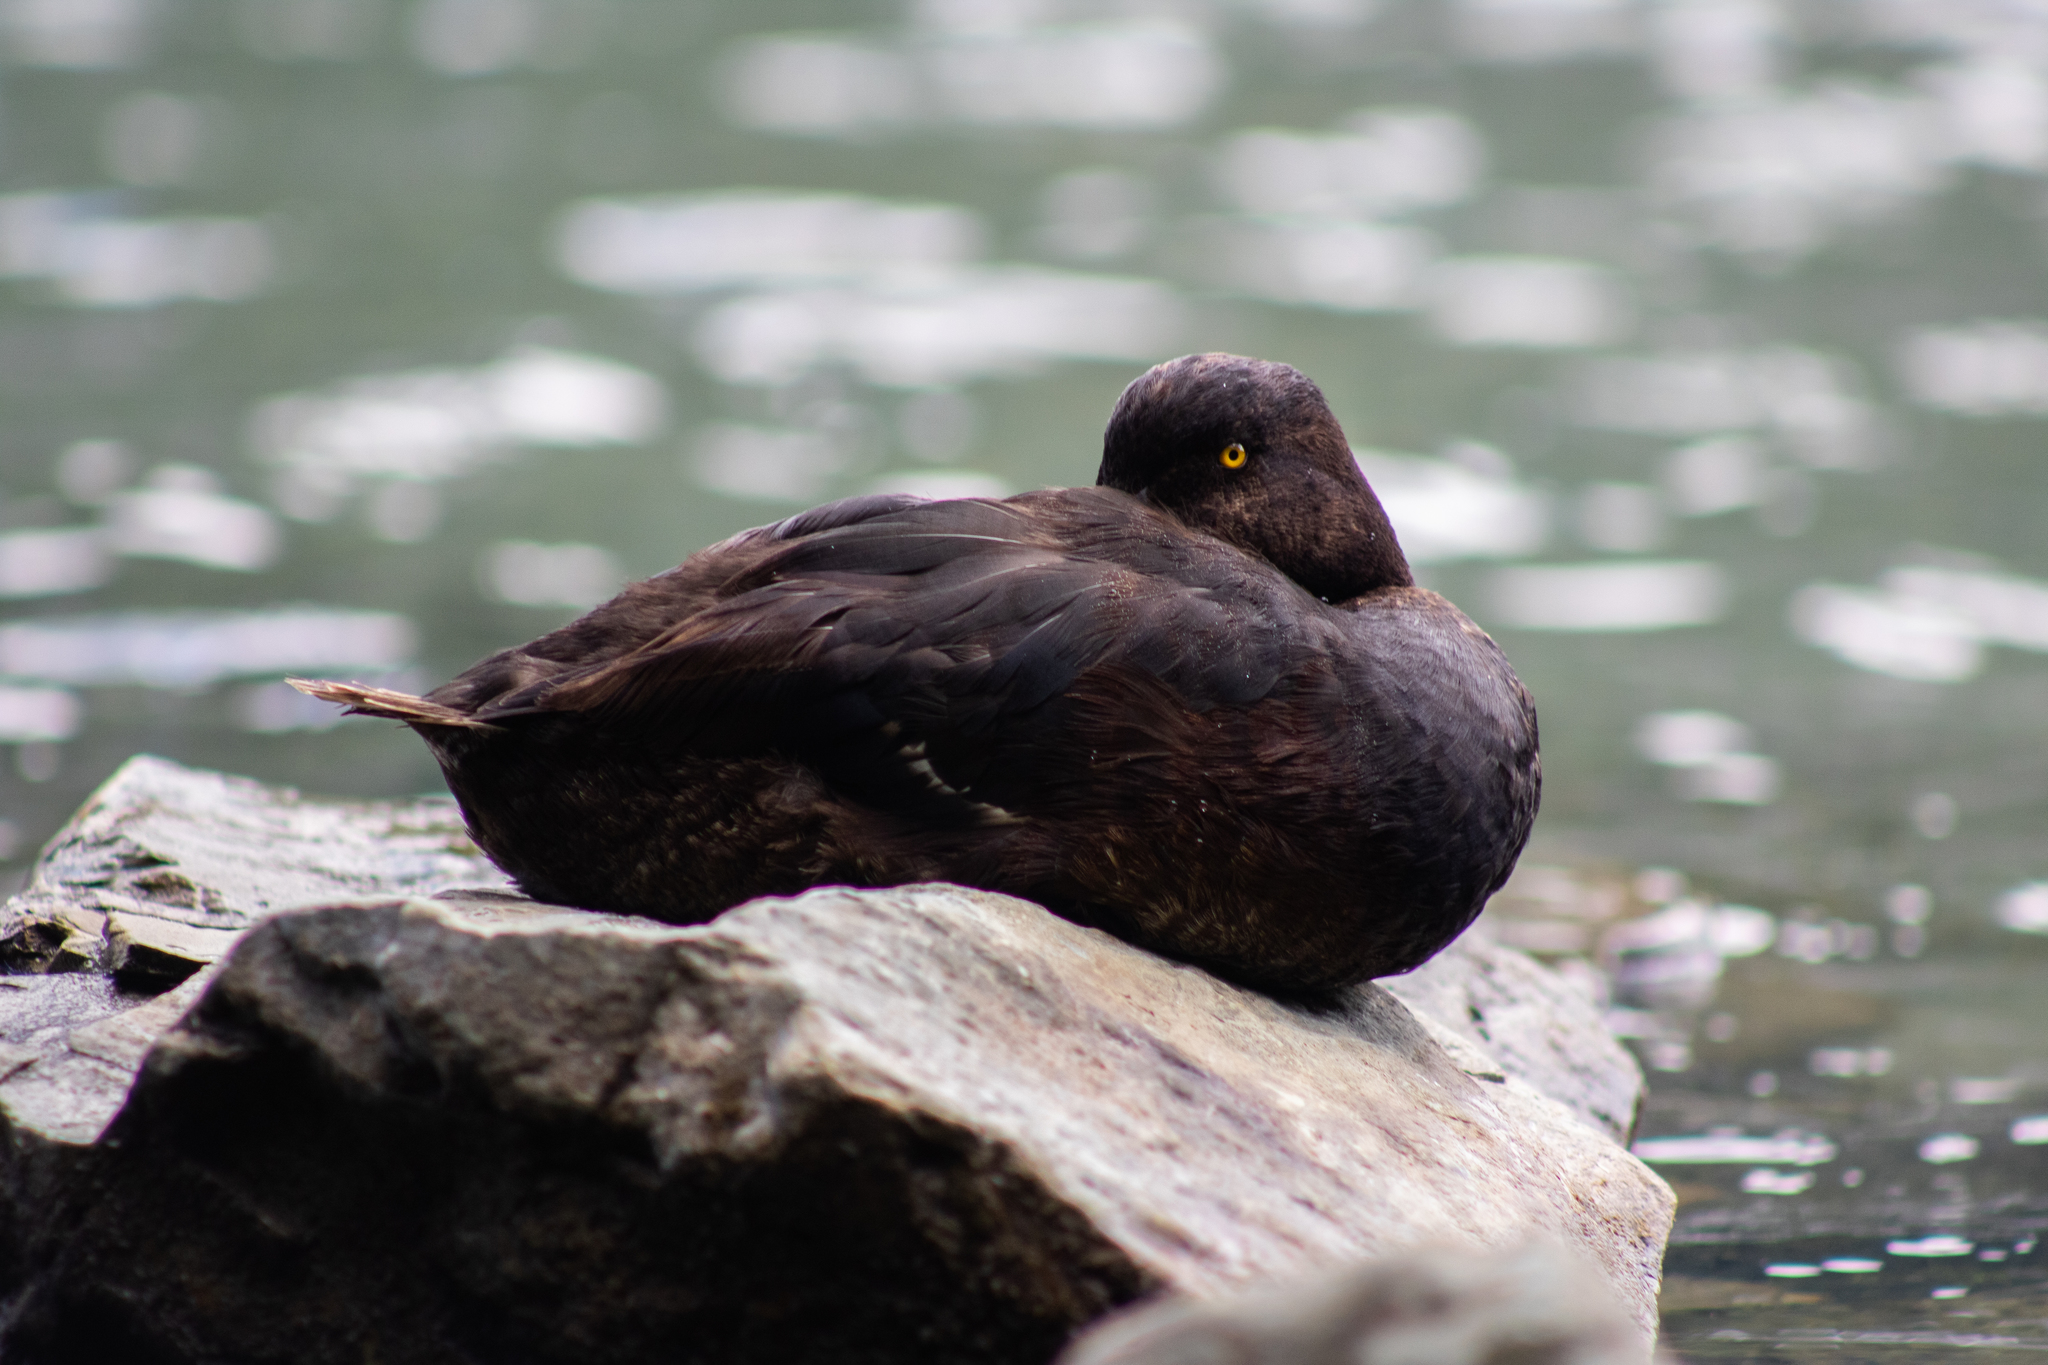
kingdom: Animalia
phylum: Chordata
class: Aves
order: Anseriformes
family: Anatidae
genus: Aythya
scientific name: Aythya novaeseelandiae
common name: New zealand scaup
